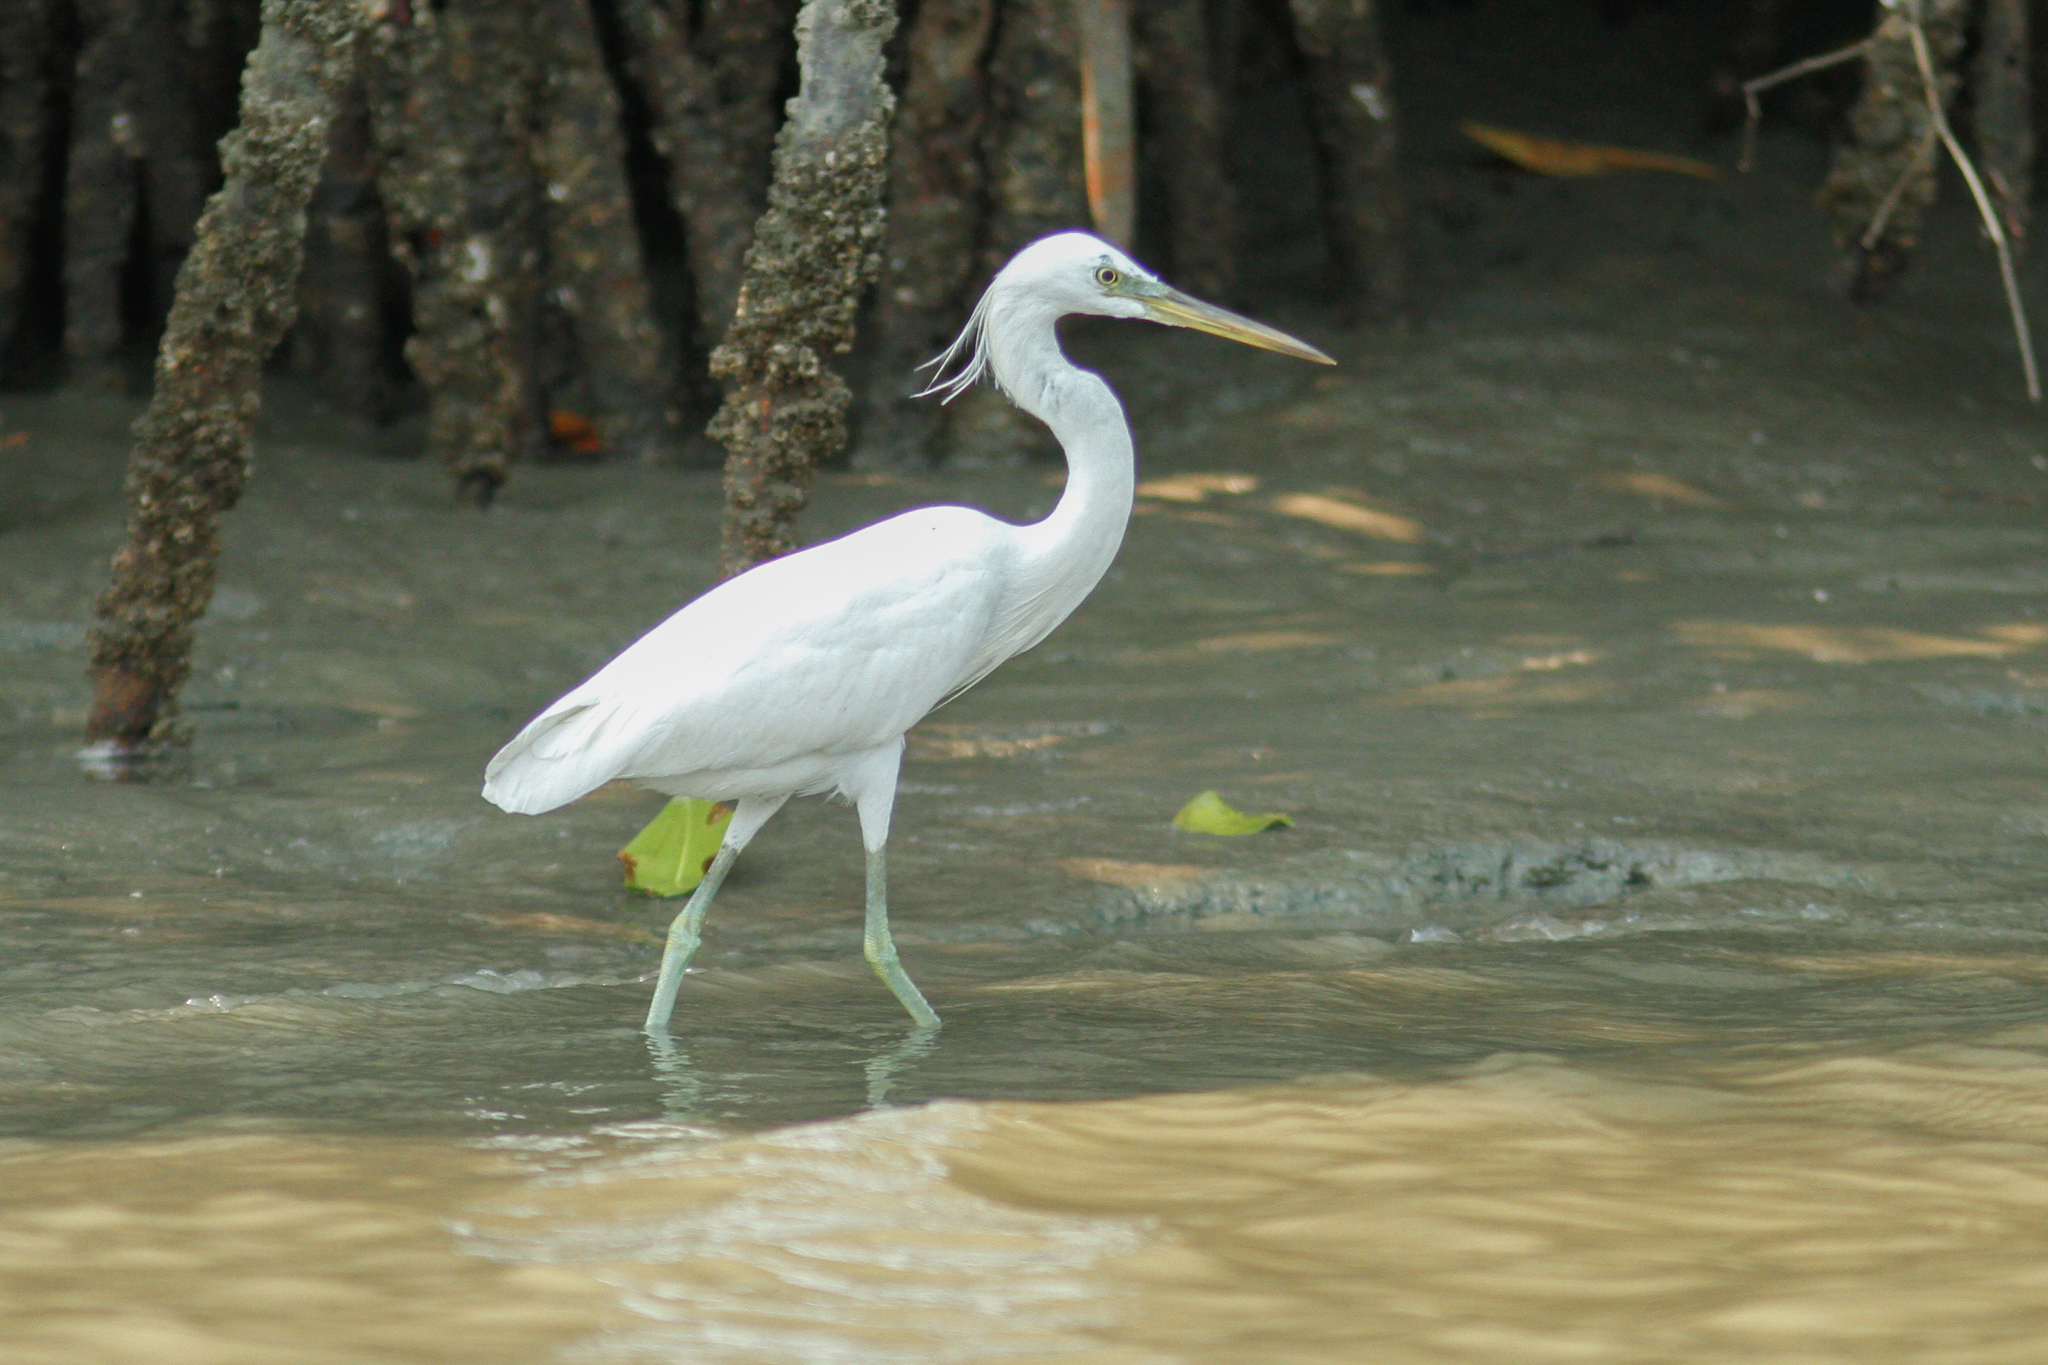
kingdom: Animalia
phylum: Chordata
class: Aves
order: Pelecaniformes
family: Ardeidae
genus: Egretta
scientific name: Egretta eulophotes
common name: Chinese egret
